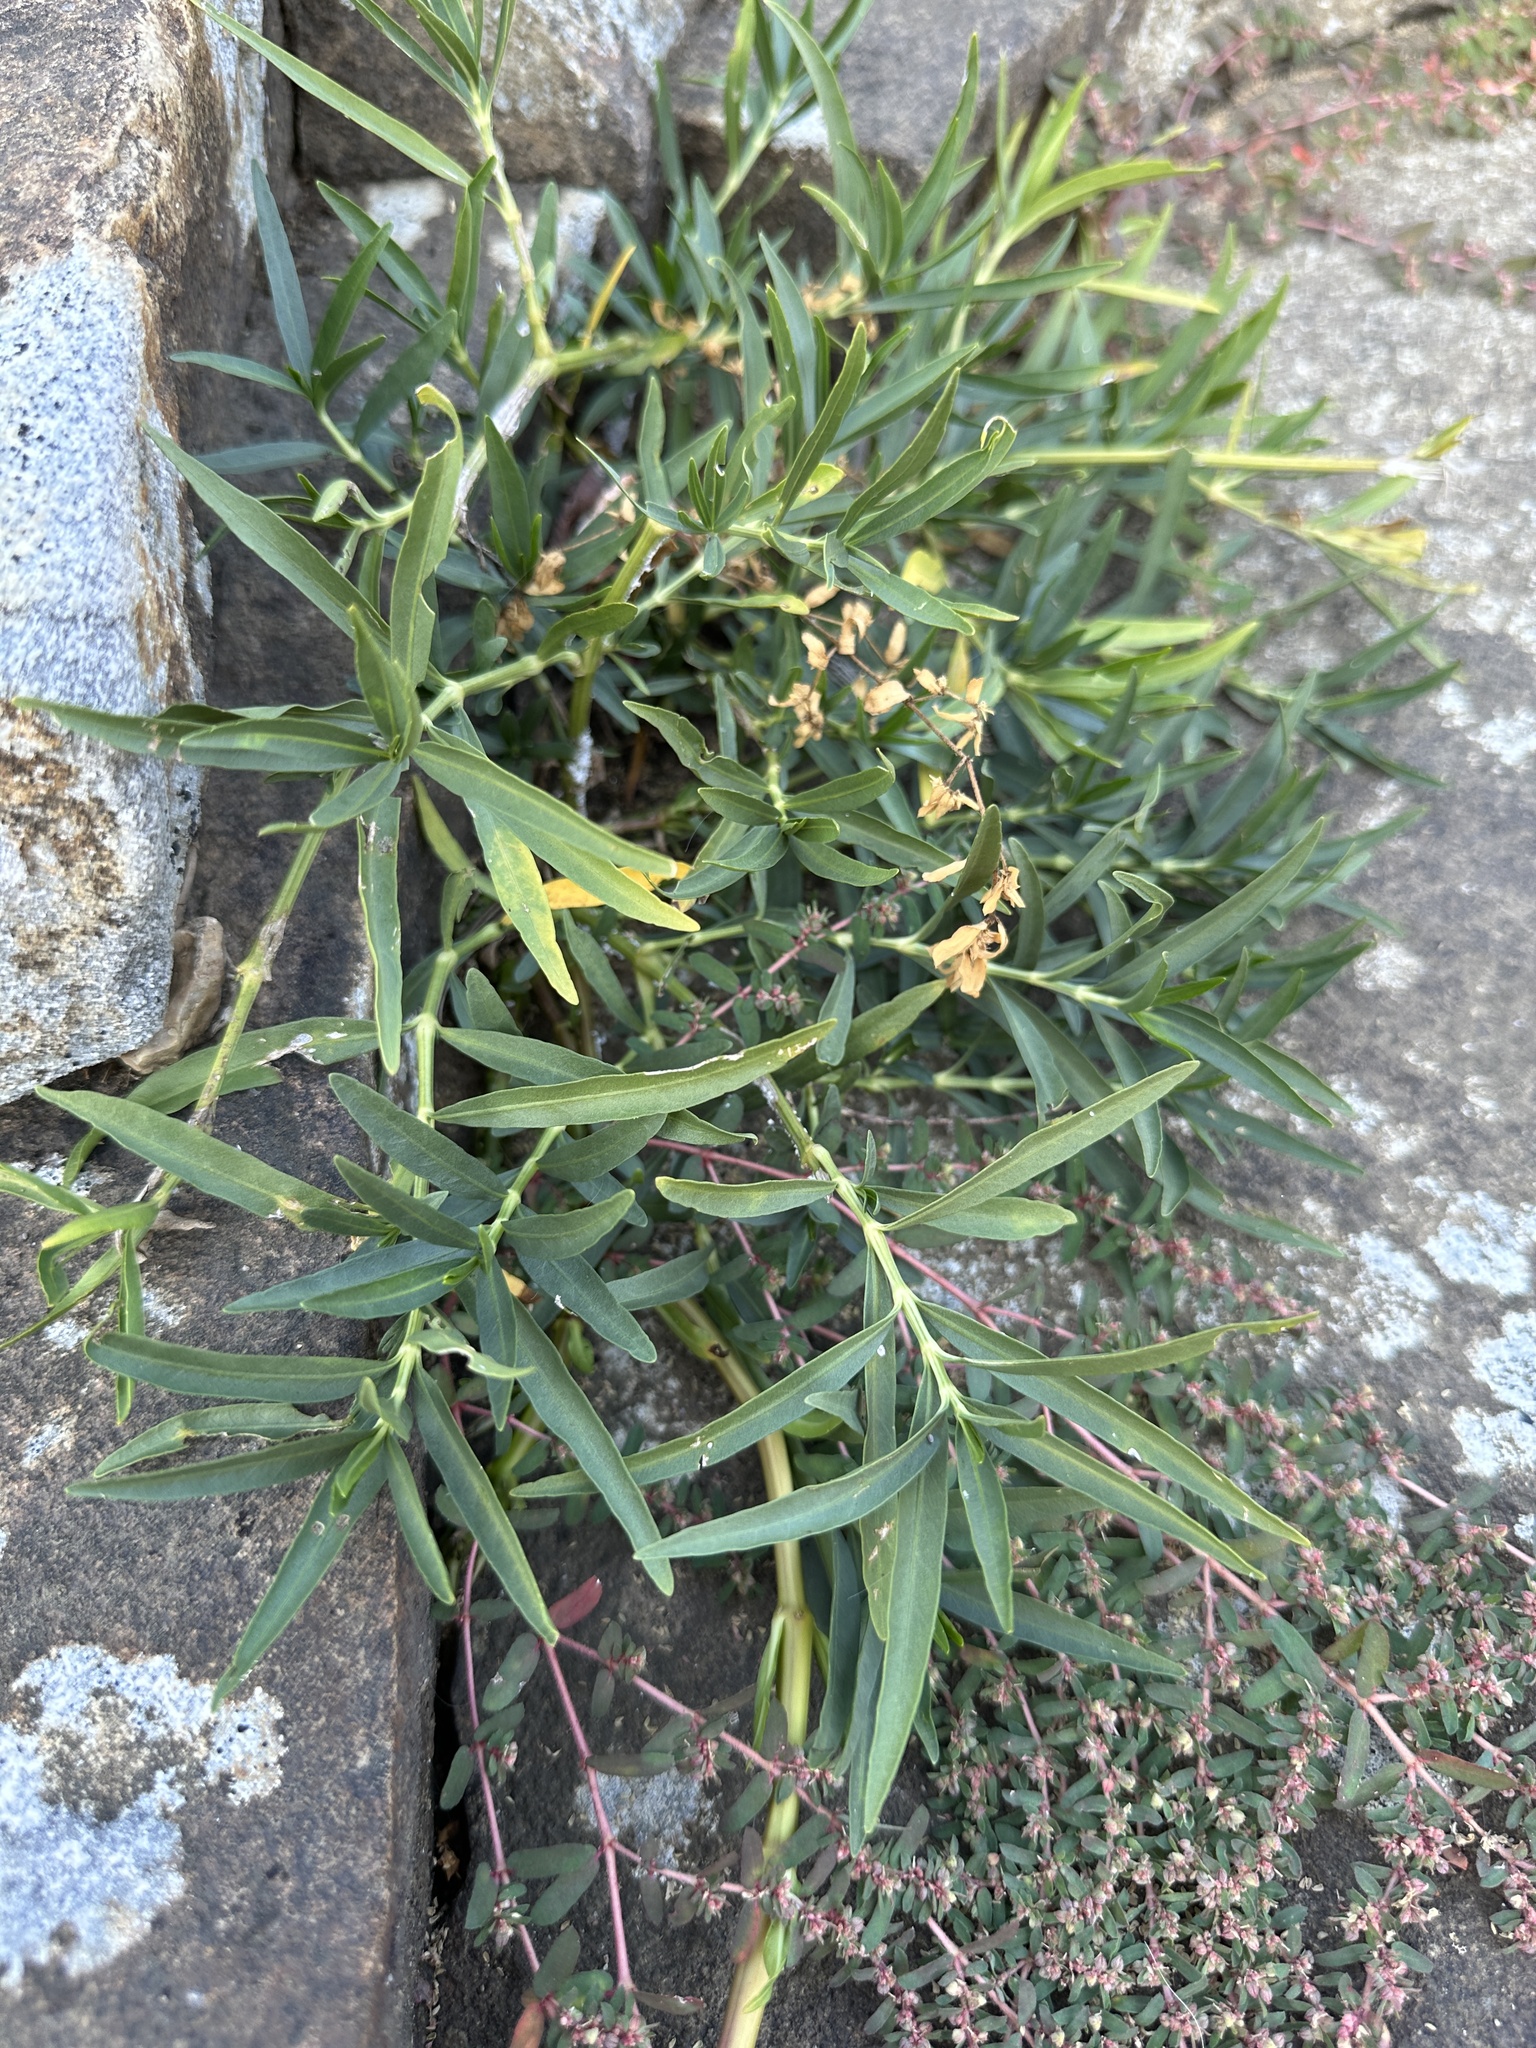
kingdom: Plantae
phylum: Tracheophyta
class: Magnoliopsida
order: Lamiales
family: Acanthaceae
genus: Dianthera
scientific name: Dianthera americana
